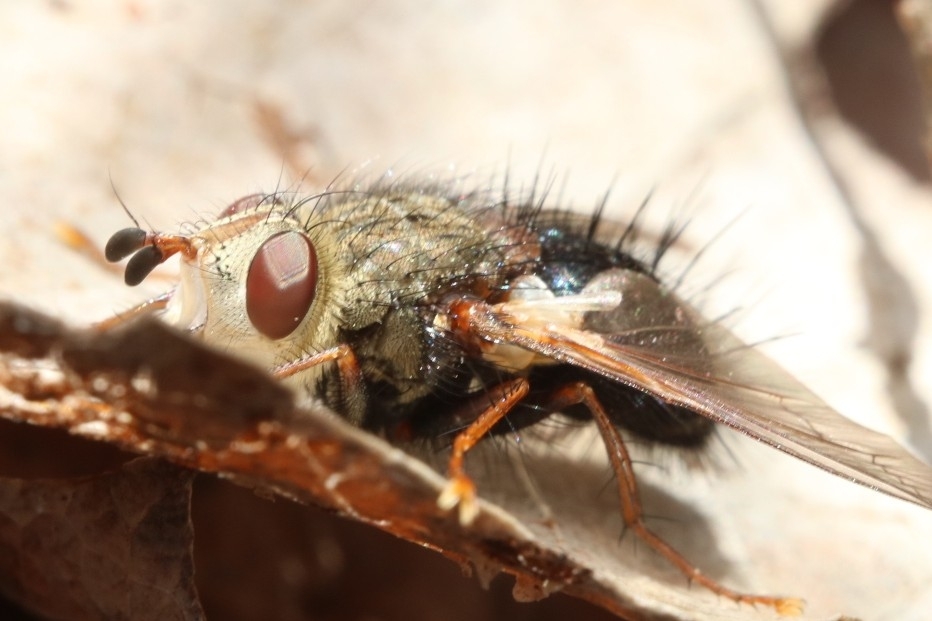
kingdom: Animalia
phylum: Arthropoda
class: Insecta
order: Diptera
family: Tachinidae
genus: Epalpus
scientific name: Epalpus signifer
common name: Early tachinid fly
